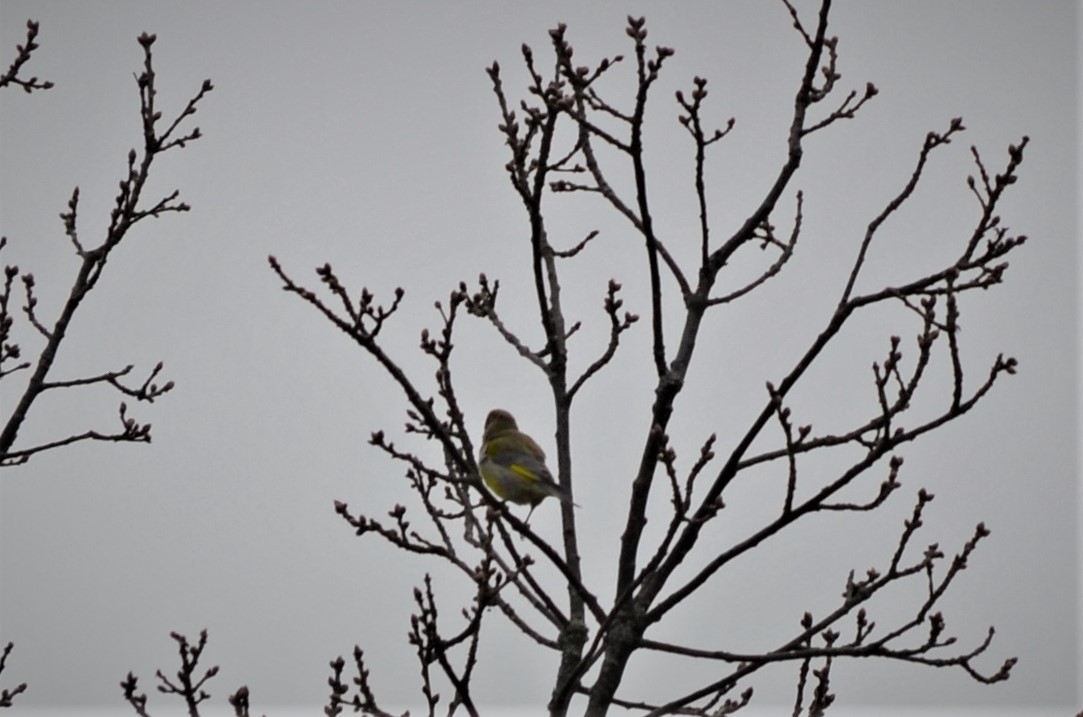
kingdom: Plantae
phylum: Tracheophyta
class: Liliopsida
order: Poales
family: Poaceae
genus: Chloris
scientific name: Chloris chloris
